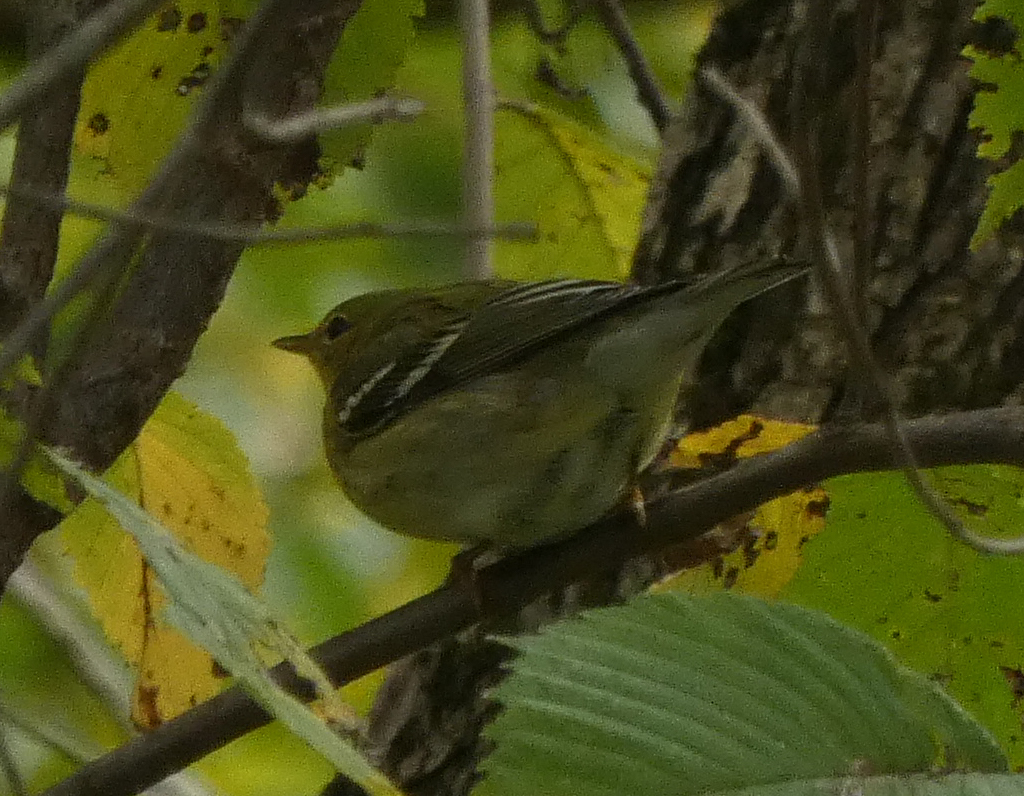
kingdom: Animalia
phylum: Chordata
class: Aves
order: Passeriformes
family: Parulidae
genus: Setophaga
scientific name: Setophaga striata
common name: Blackpoll warbler
